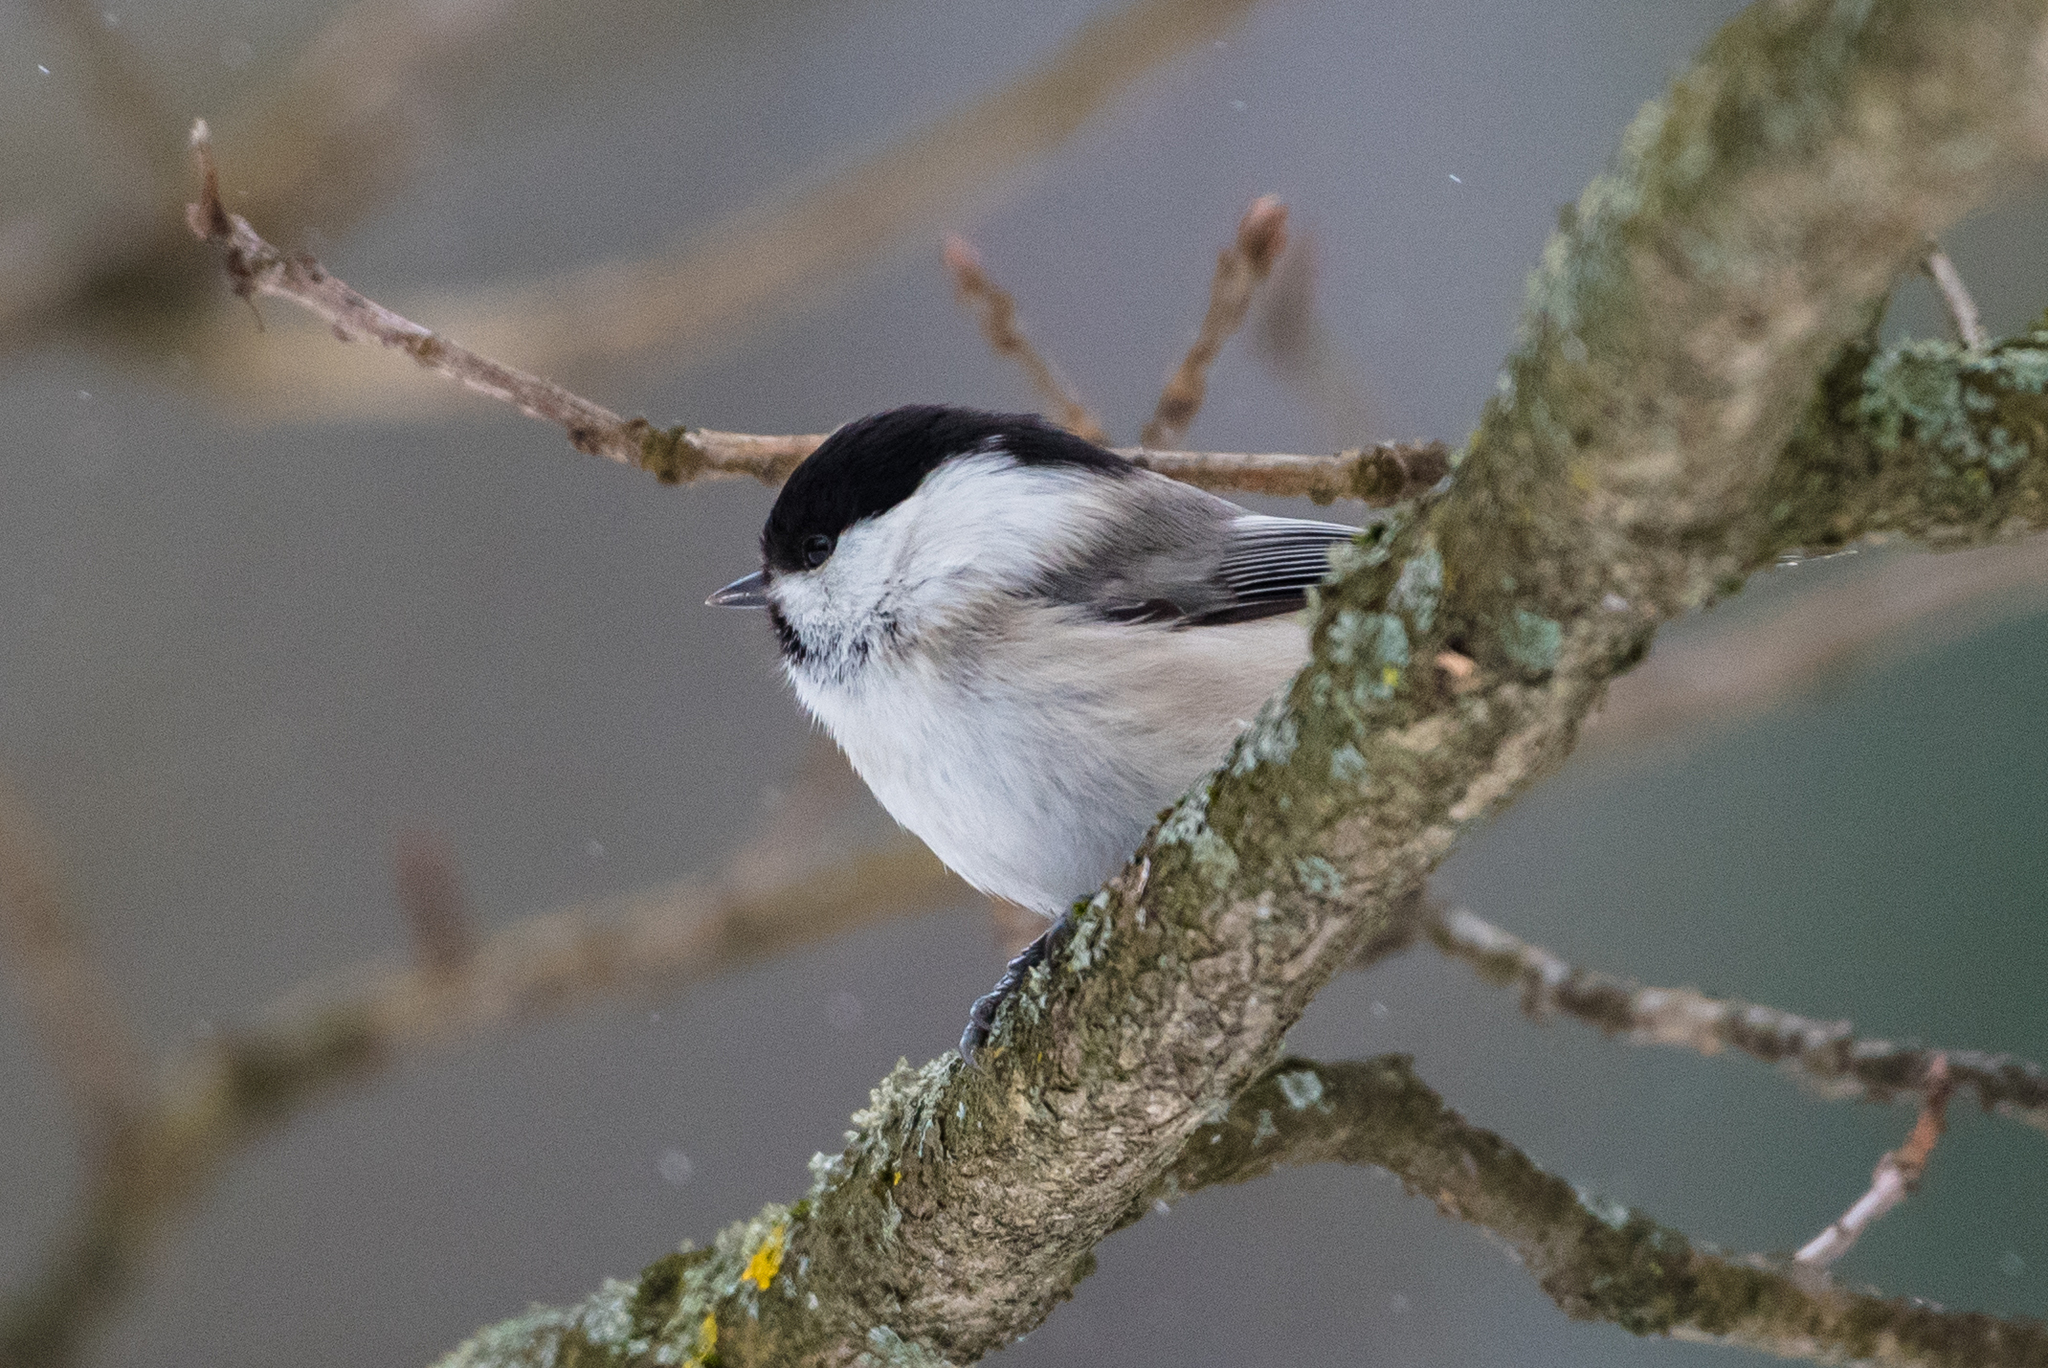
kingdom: Animalia
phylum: Chordata
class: Aves
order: Passeriformes
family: Paridae
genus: Poecile
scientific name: Poecile montanus
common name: Willow tit
